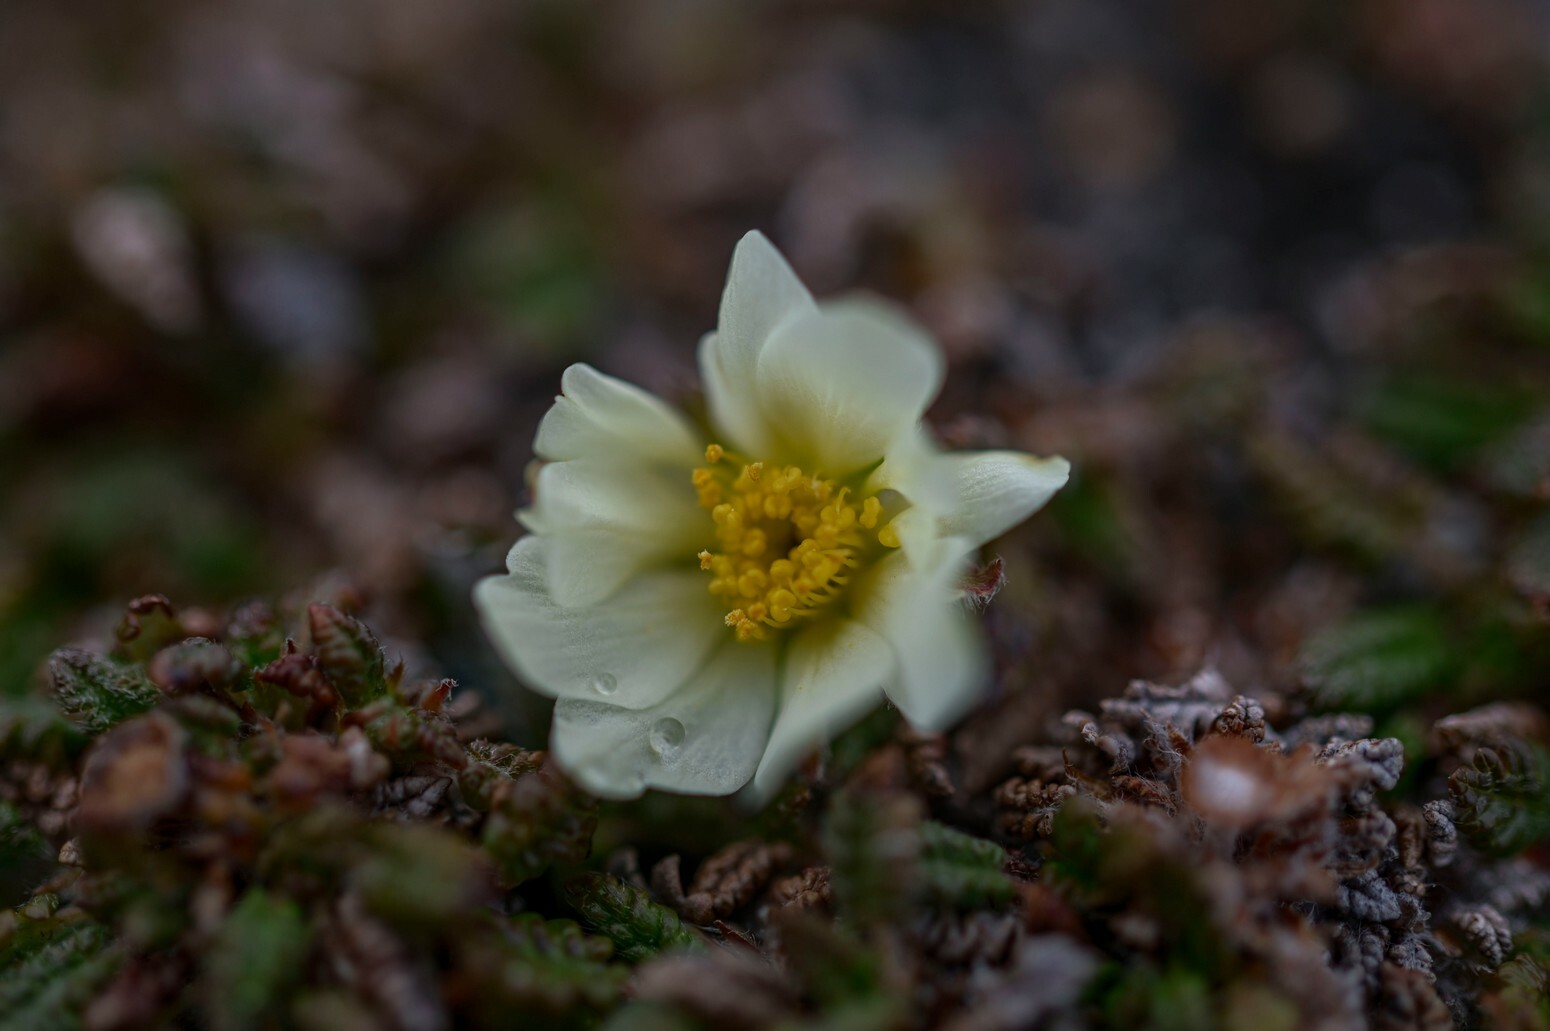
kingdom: Plantae
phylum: Tracheophyta
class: Magnoliopsida
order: Rosales
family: Rosaceae
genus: Dryas
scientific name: Dryas octopetala
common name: Eight-petal mountain-avens
